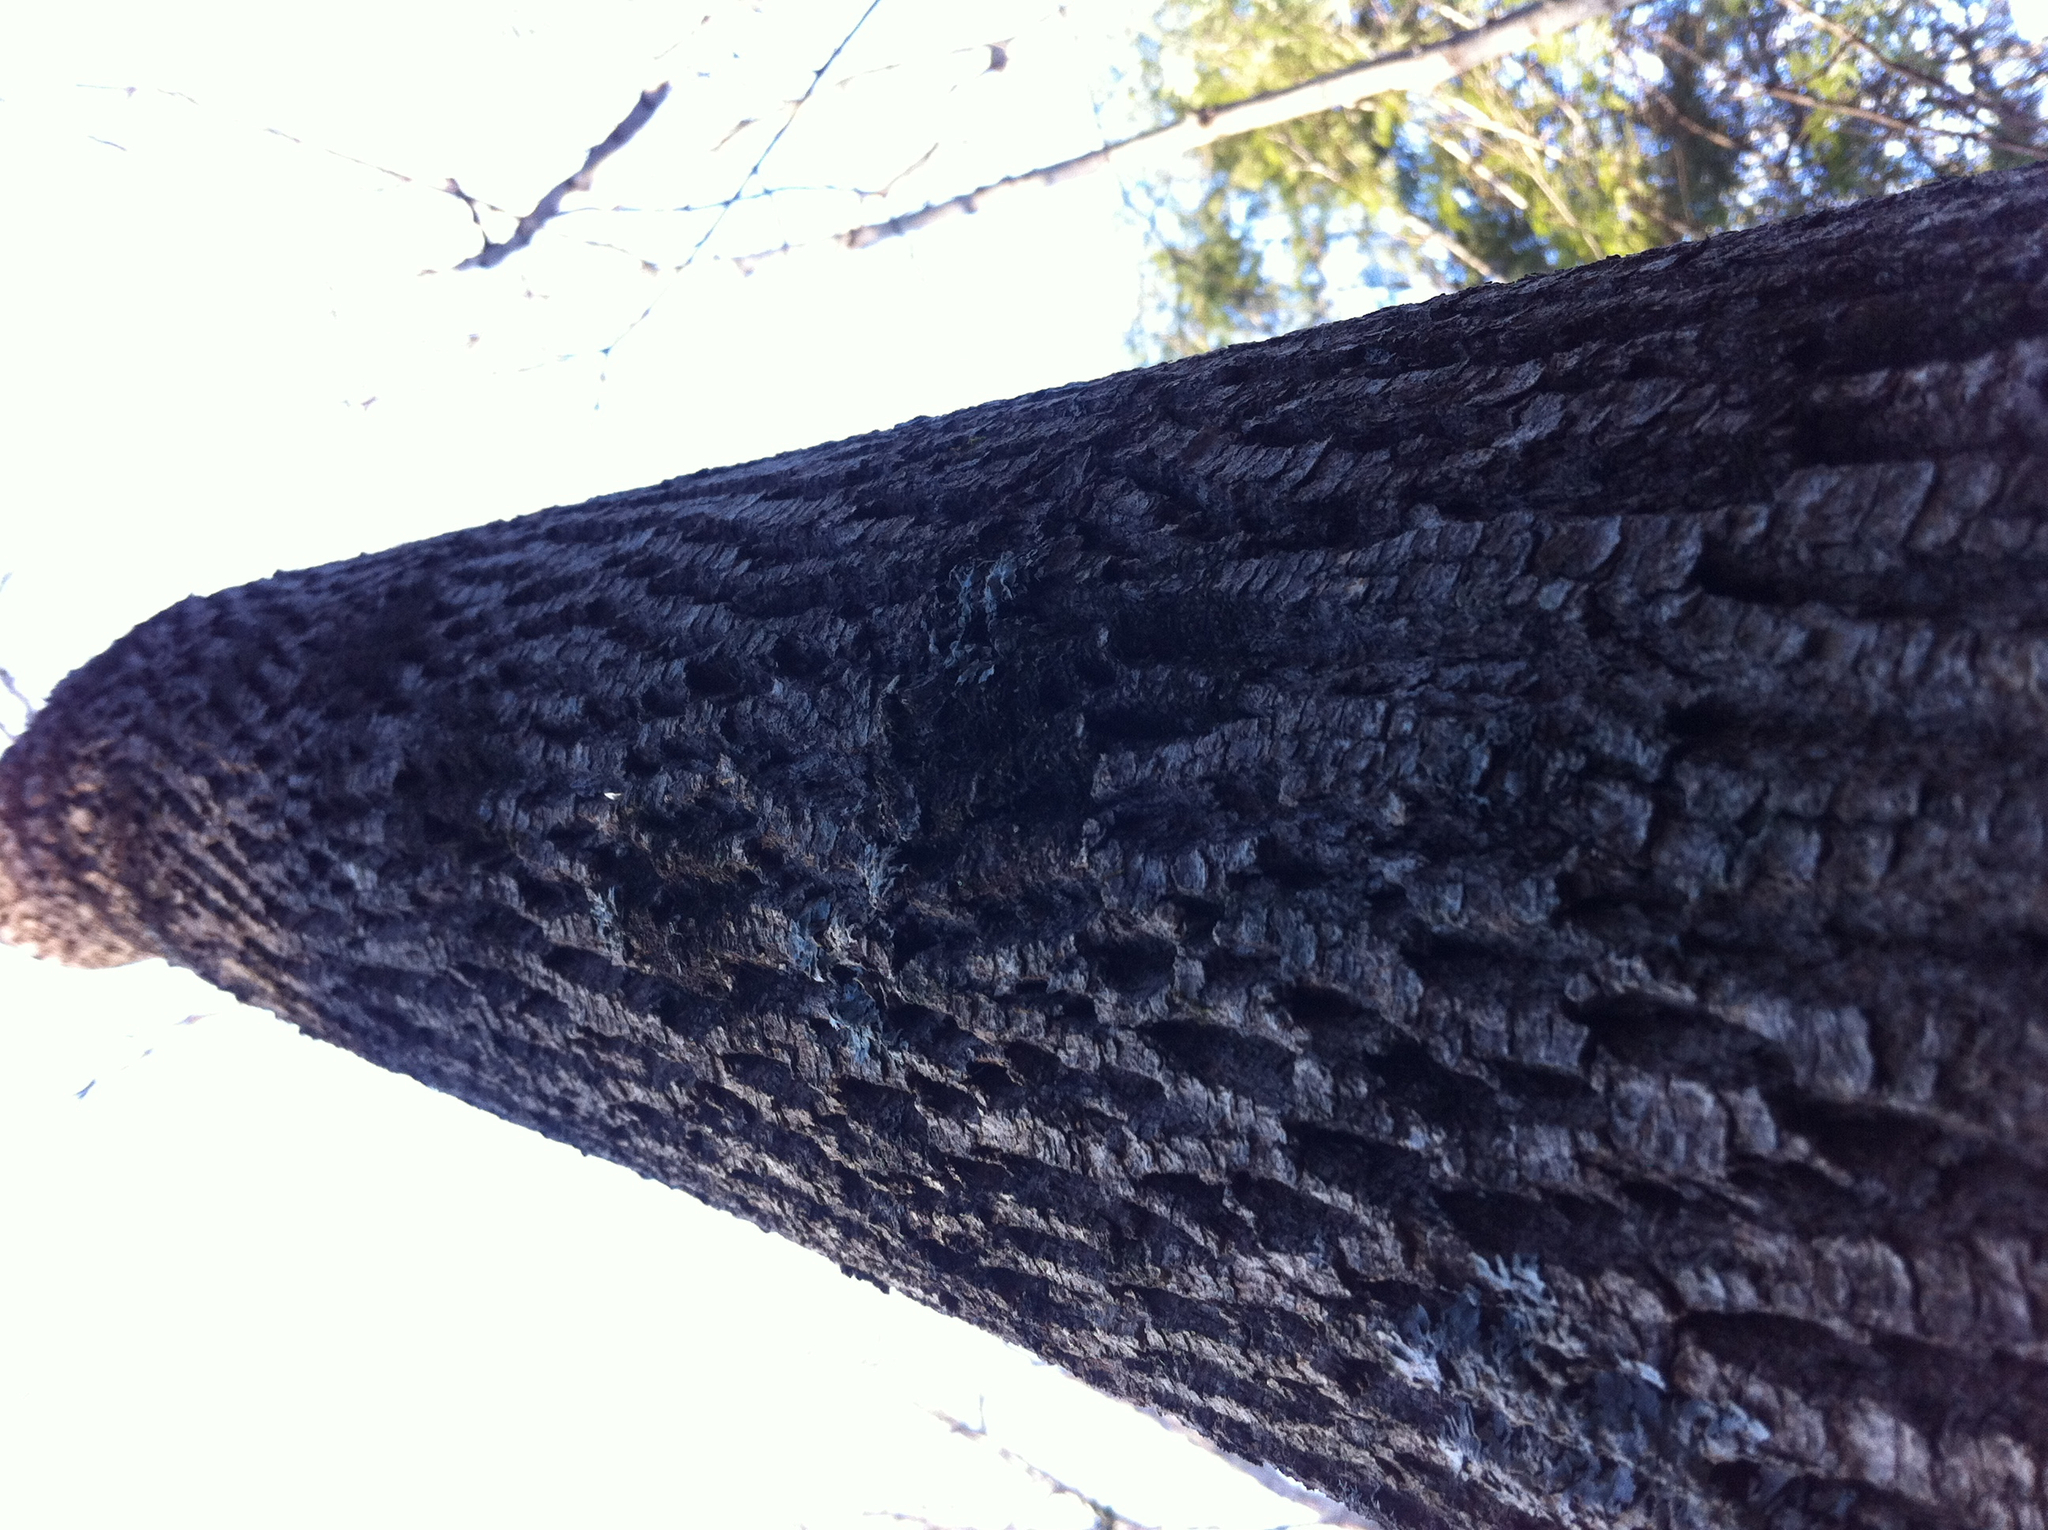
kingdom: Plantae
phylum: Tracheophyta
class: Magnoliopsida
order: Lamiales
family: Oleaceae
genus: Fraxinus
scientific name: Fraxinus americana
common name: White ash
